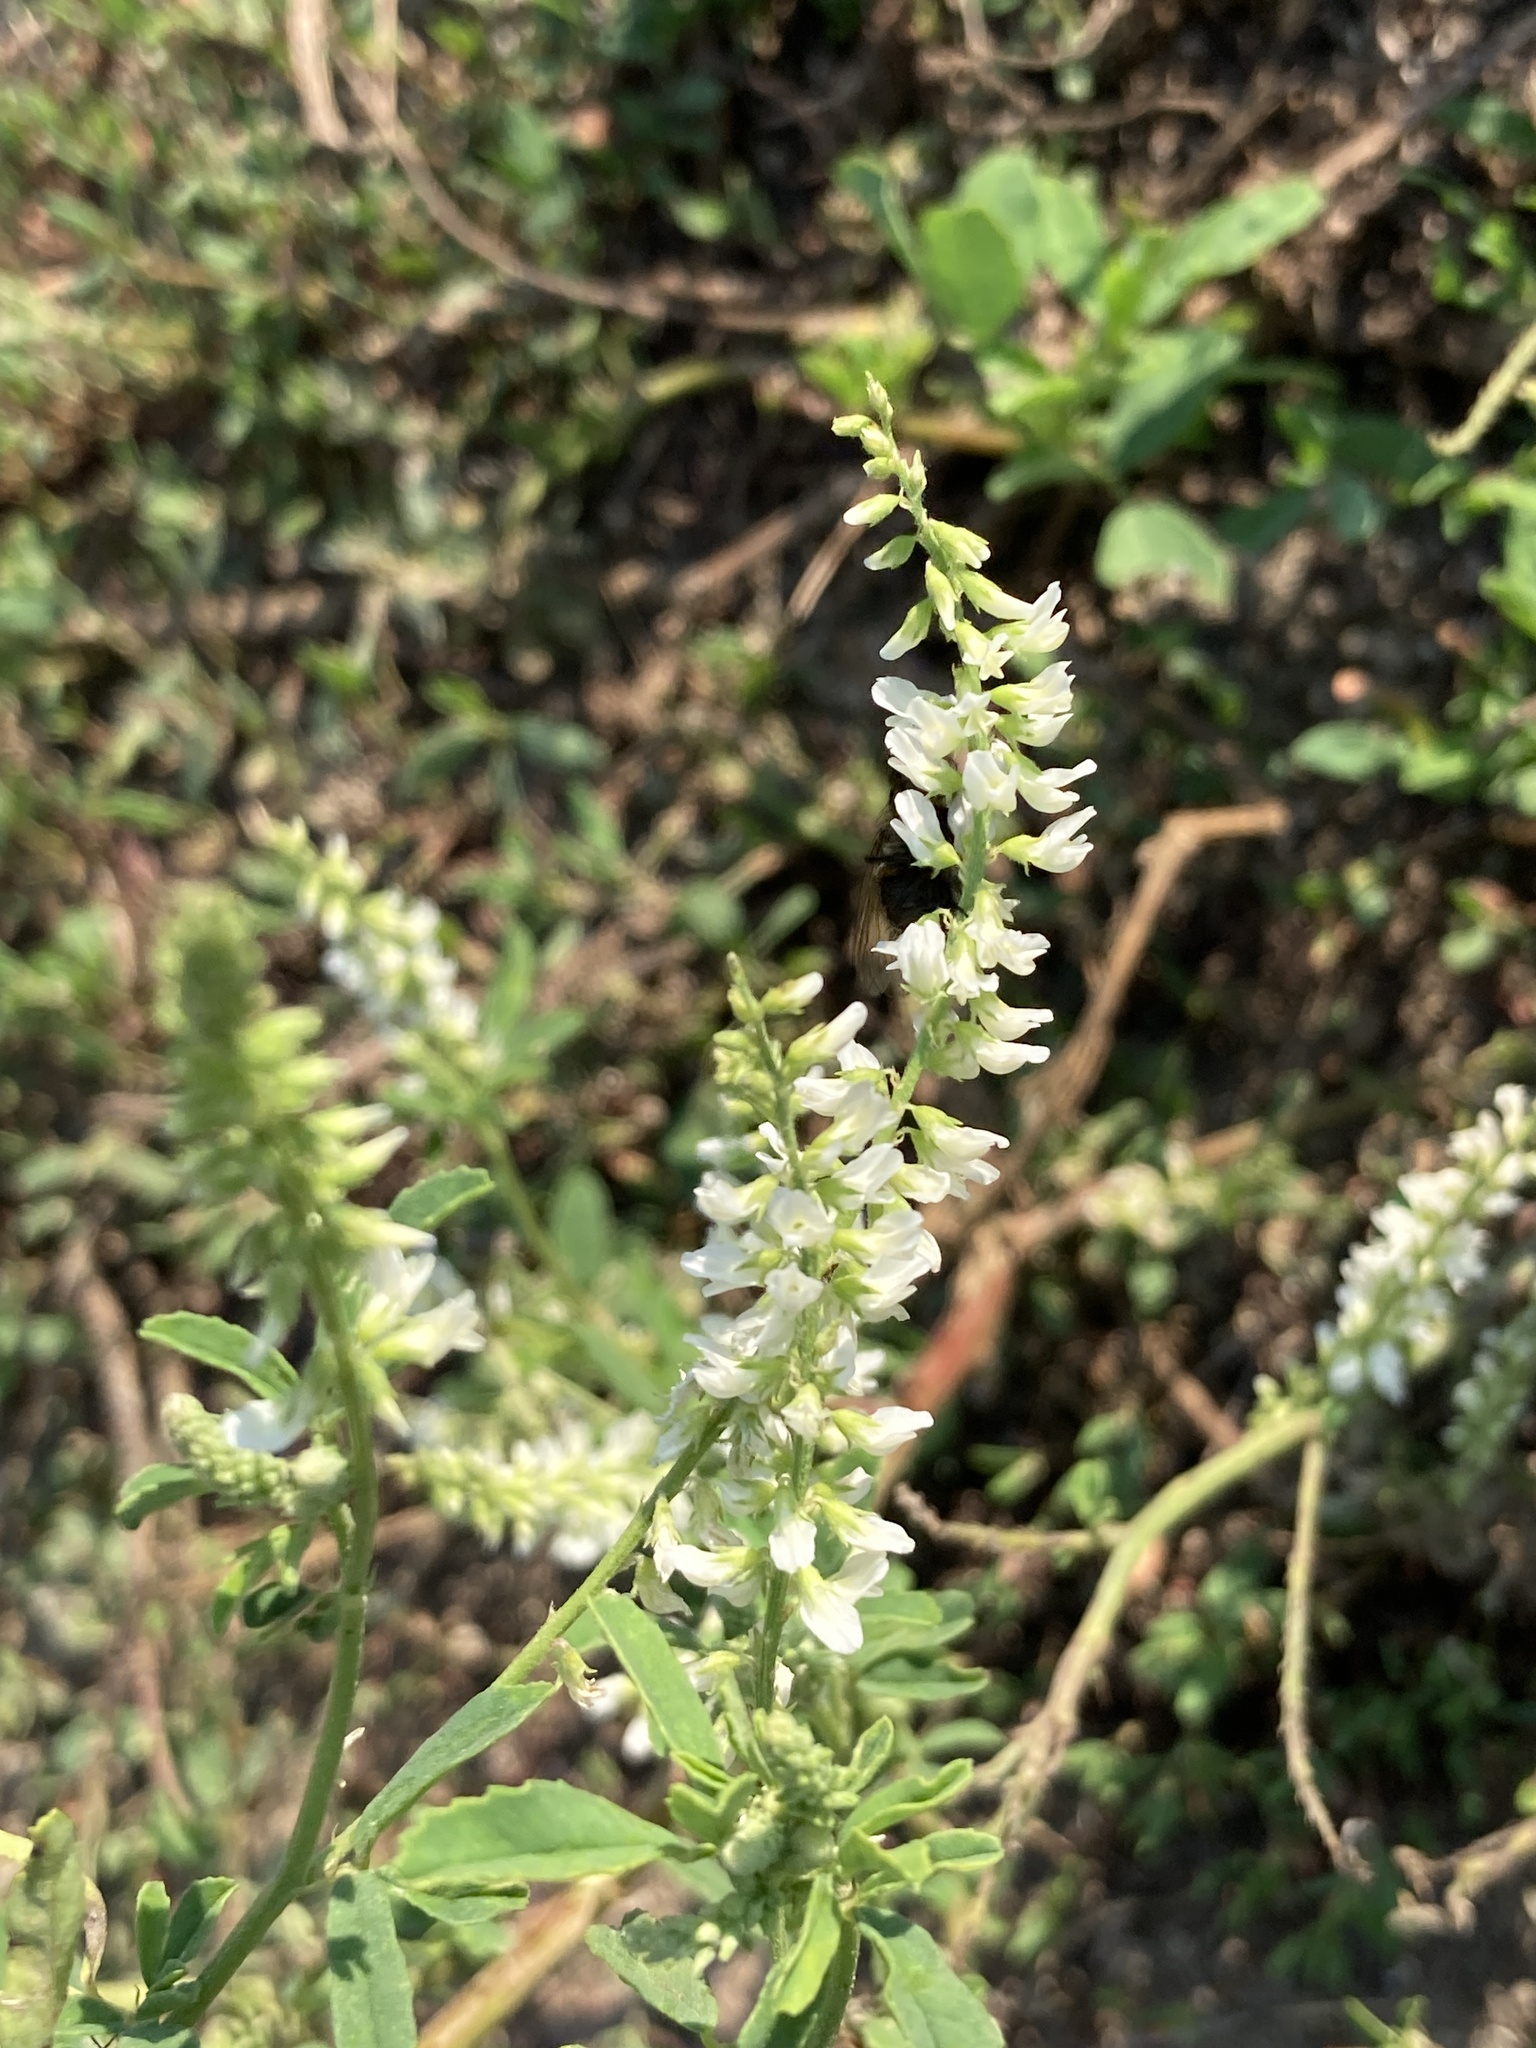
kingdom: Plantae
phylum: Tracheophyta
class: Magnoliopsida
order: Fabales
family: Fabaceae
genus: Melilotus
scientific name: Melilotus albus
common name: White melilot
